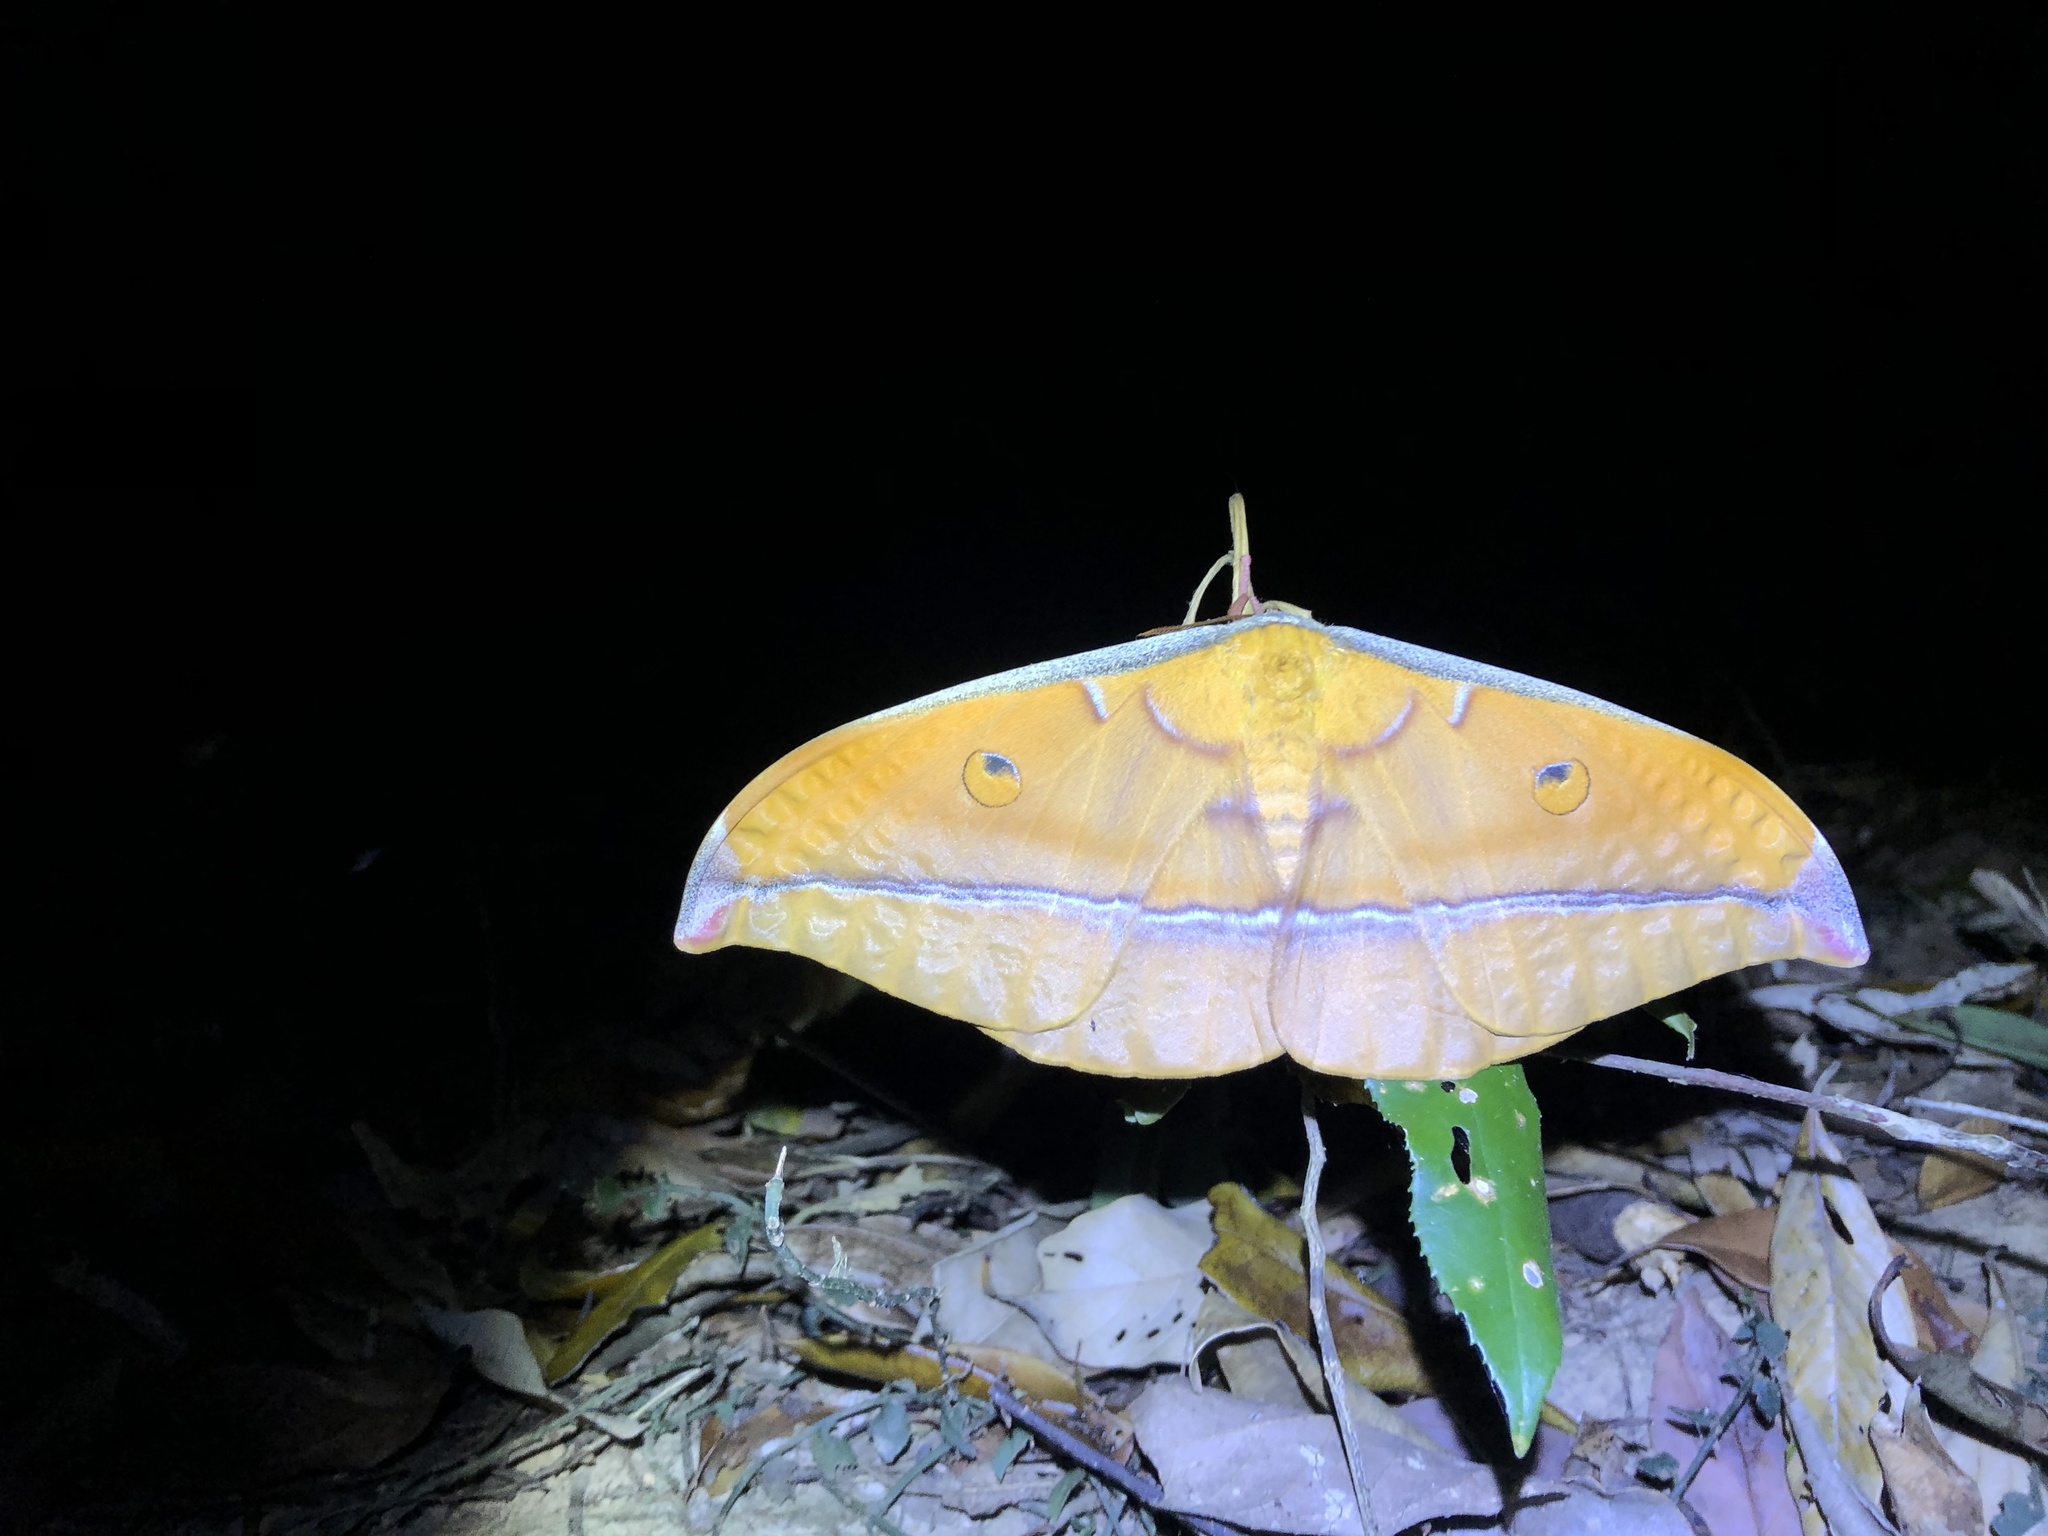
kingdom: Animalia
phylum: Arthropoda
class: Insecta
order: Lepidoptera
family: Saturniidae
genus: Antheraea
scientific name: Antheraea formosana
